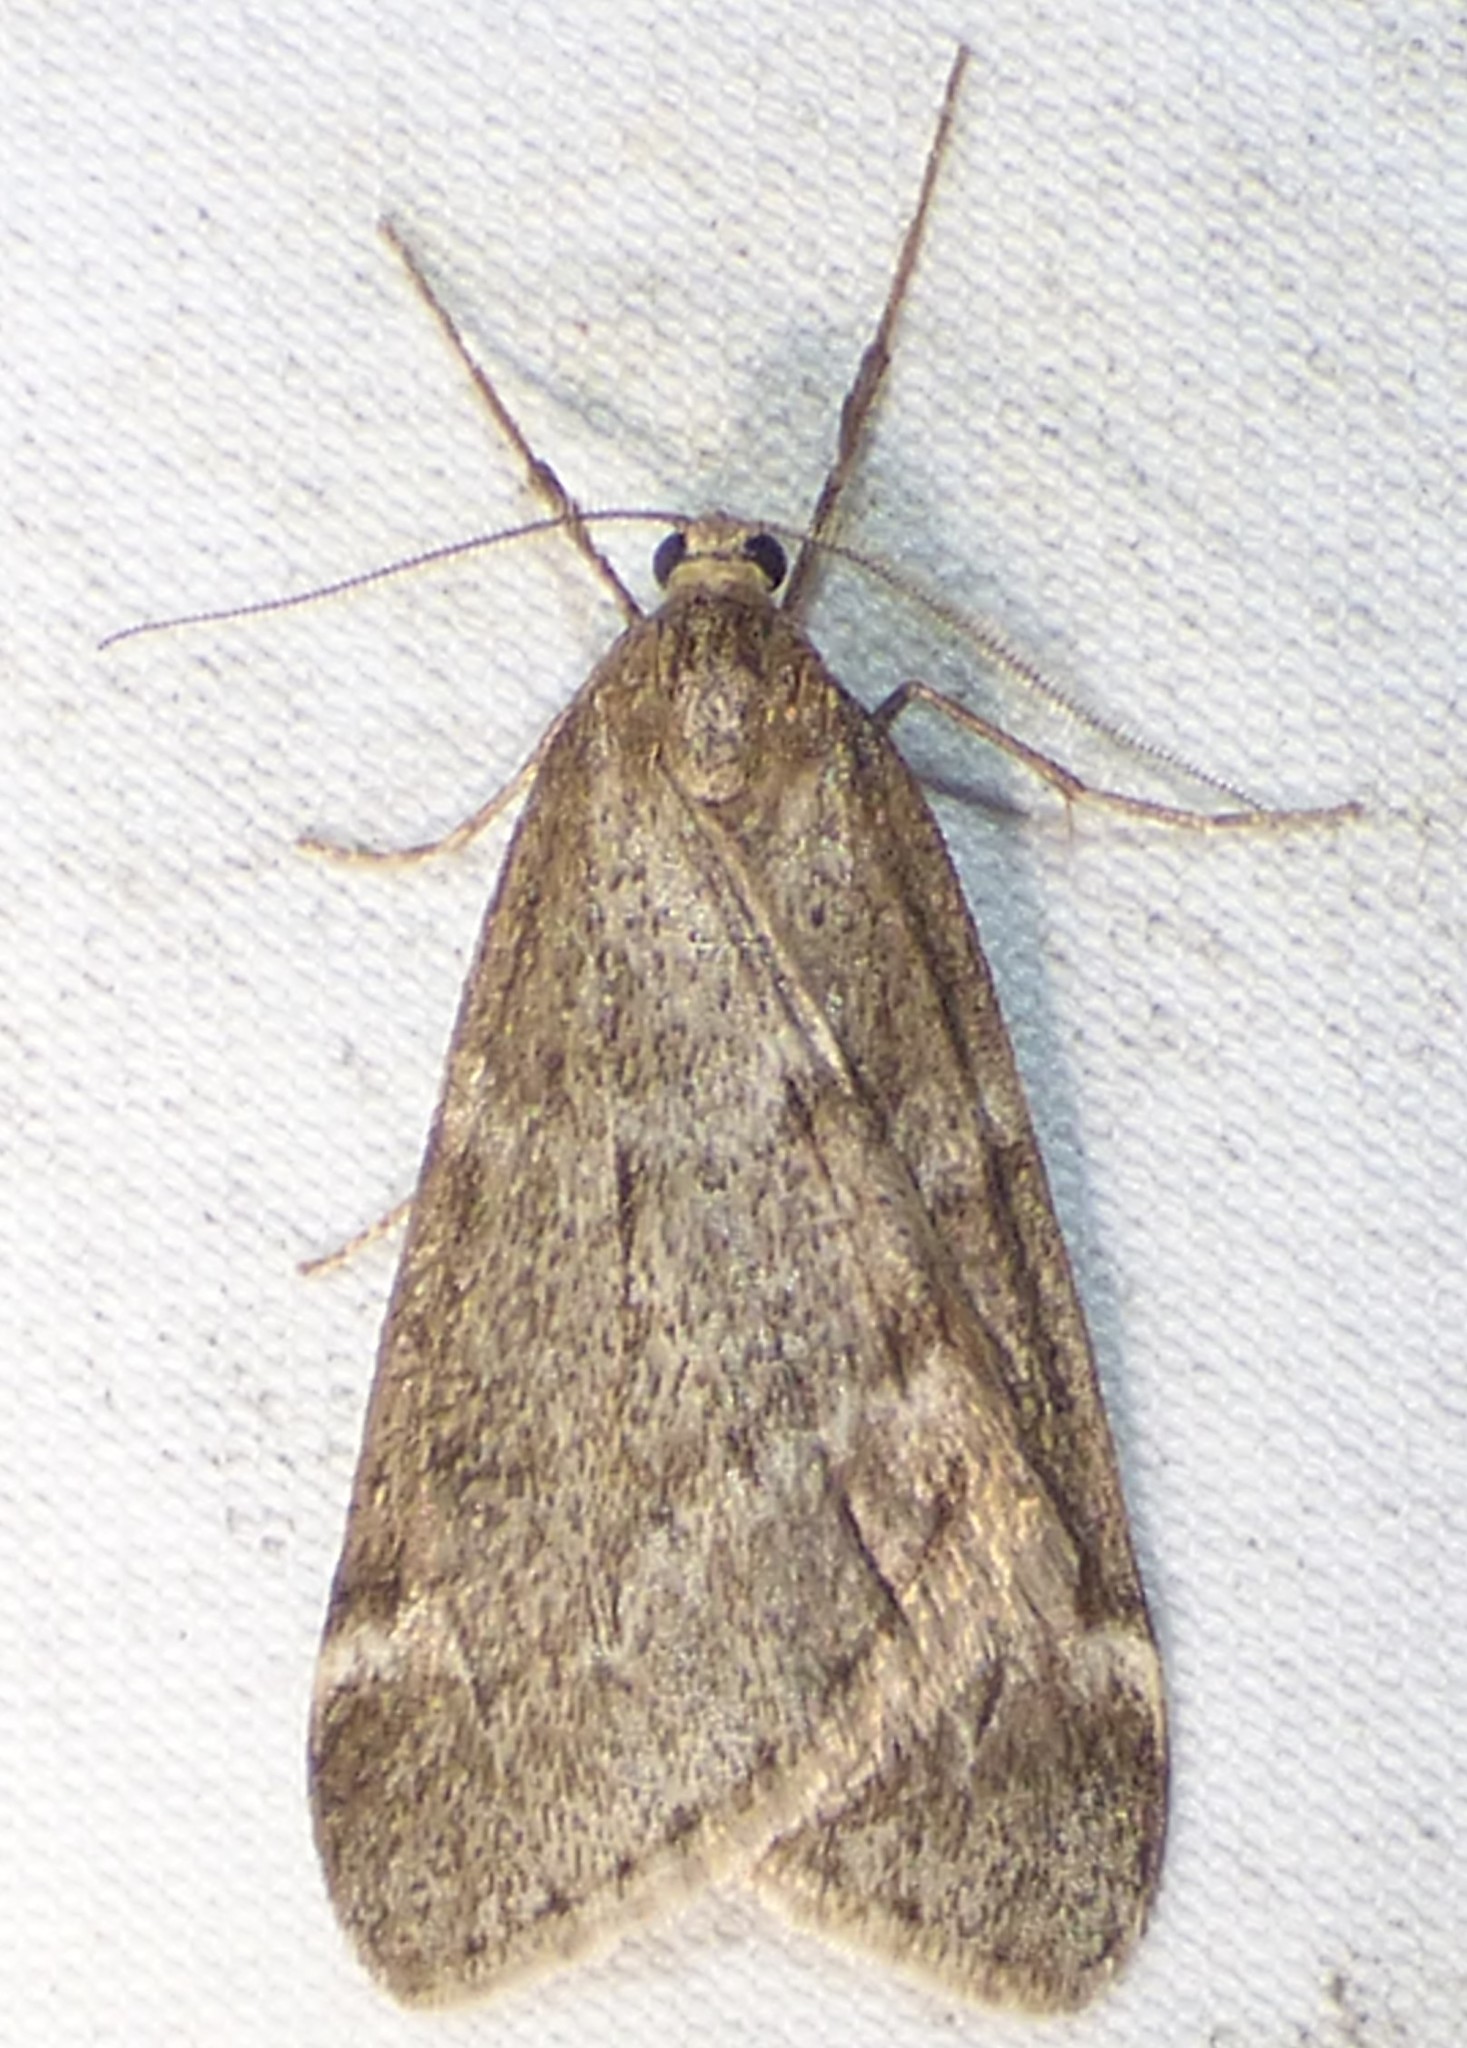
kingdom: Animalia
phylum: Arthropoda
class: Insecta
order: Lepidoptera
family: Geometridae
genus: Alsophila
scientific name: Alsophila pometaria
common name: Fall cankerworm
